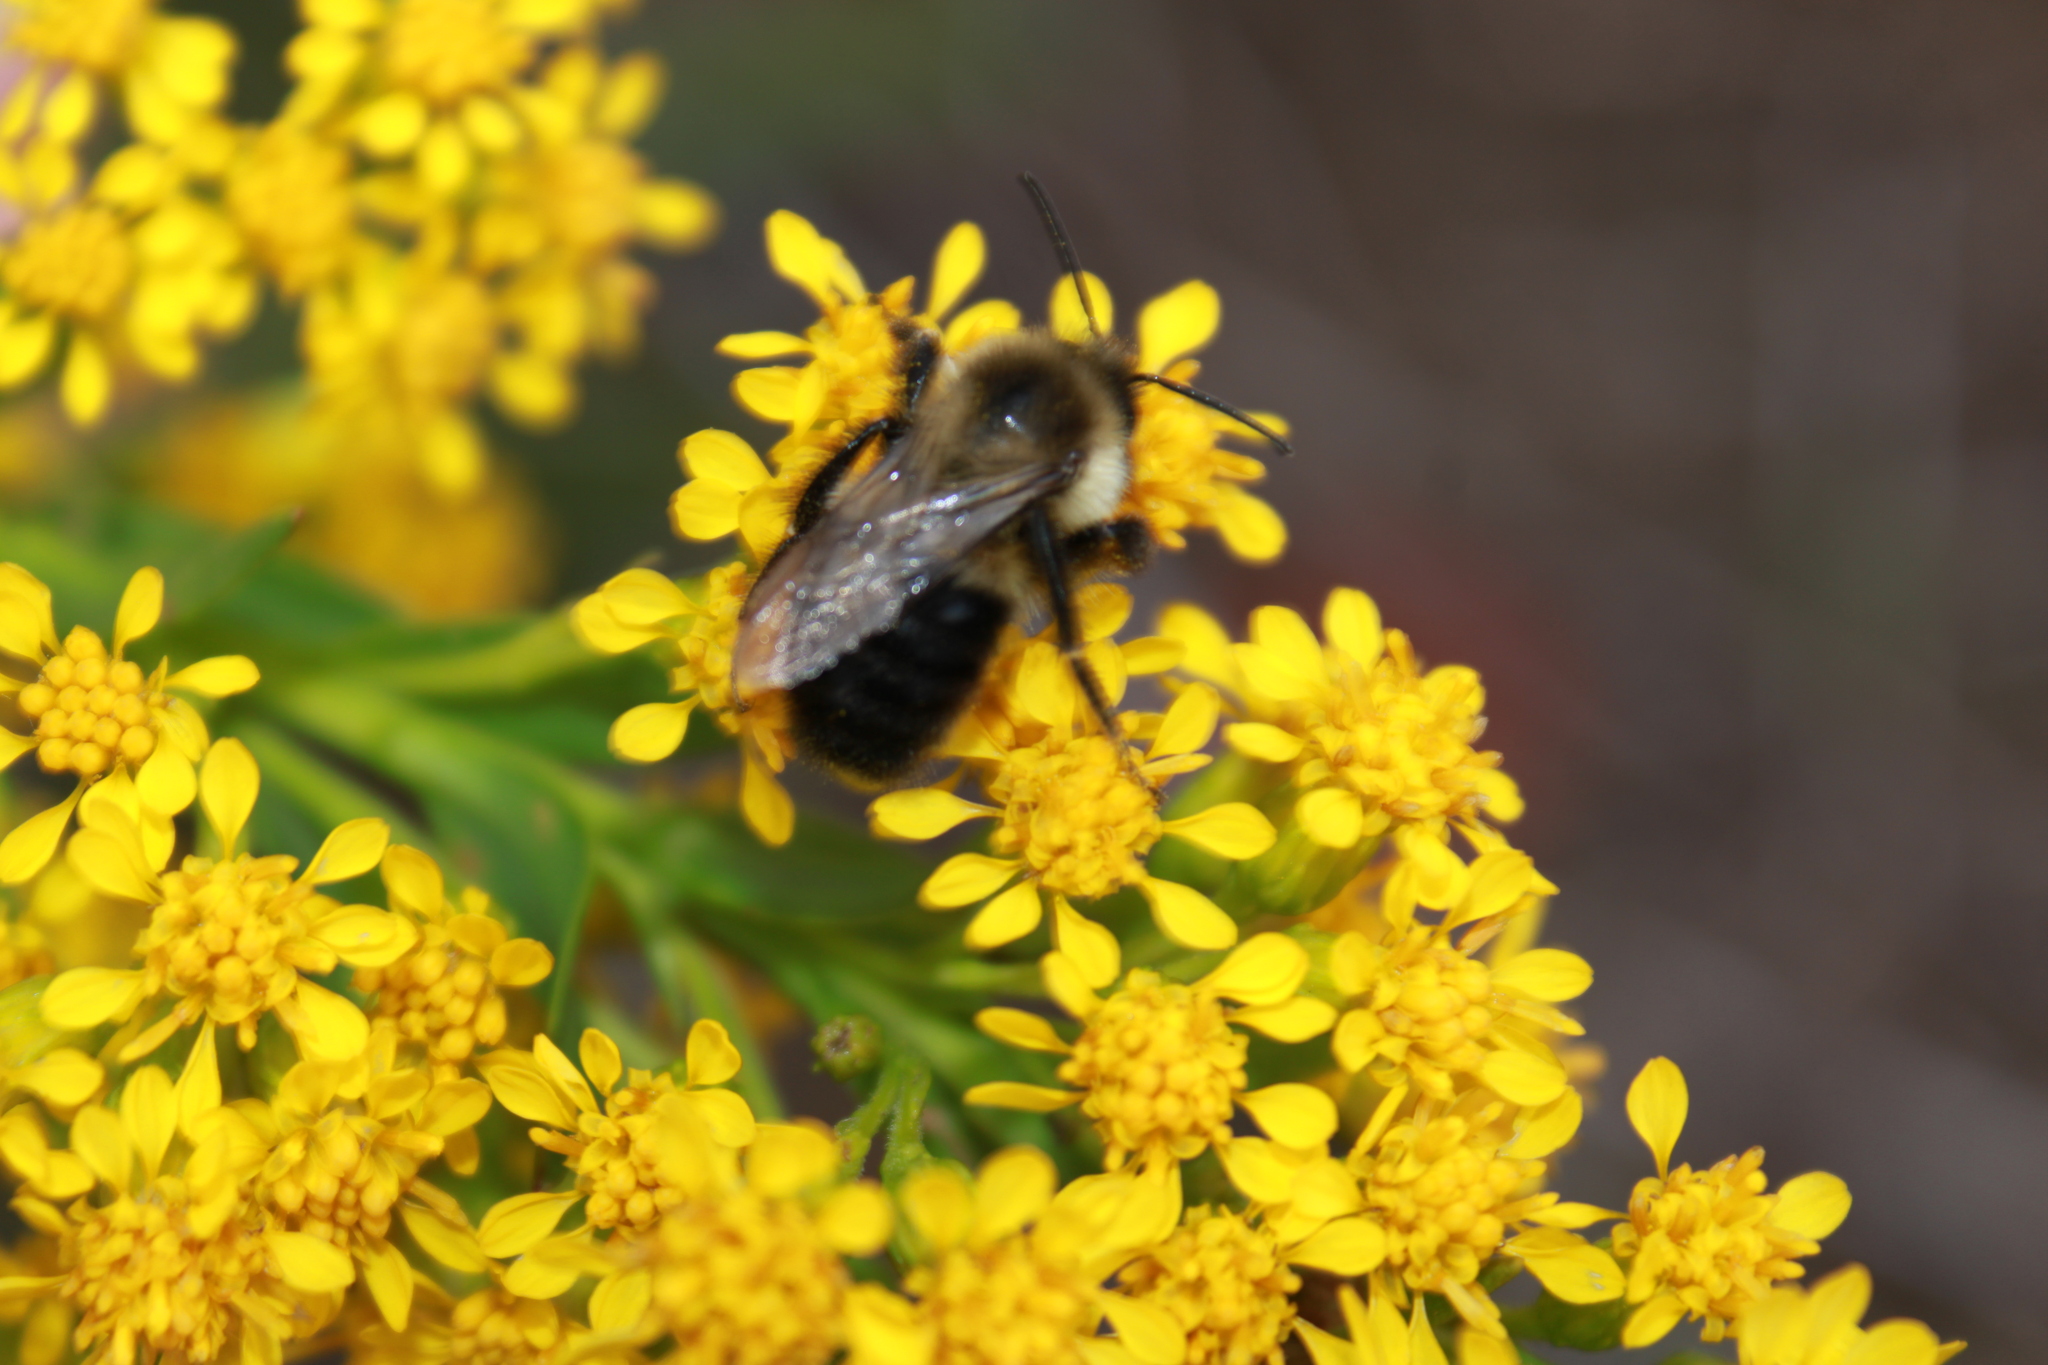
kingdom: Animalia
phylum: Arthropoda
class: Insecta
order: Hymenoptera
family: Apidae
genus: Bombus
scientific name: Bombus impatiens
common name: Common eastern bumble bee
